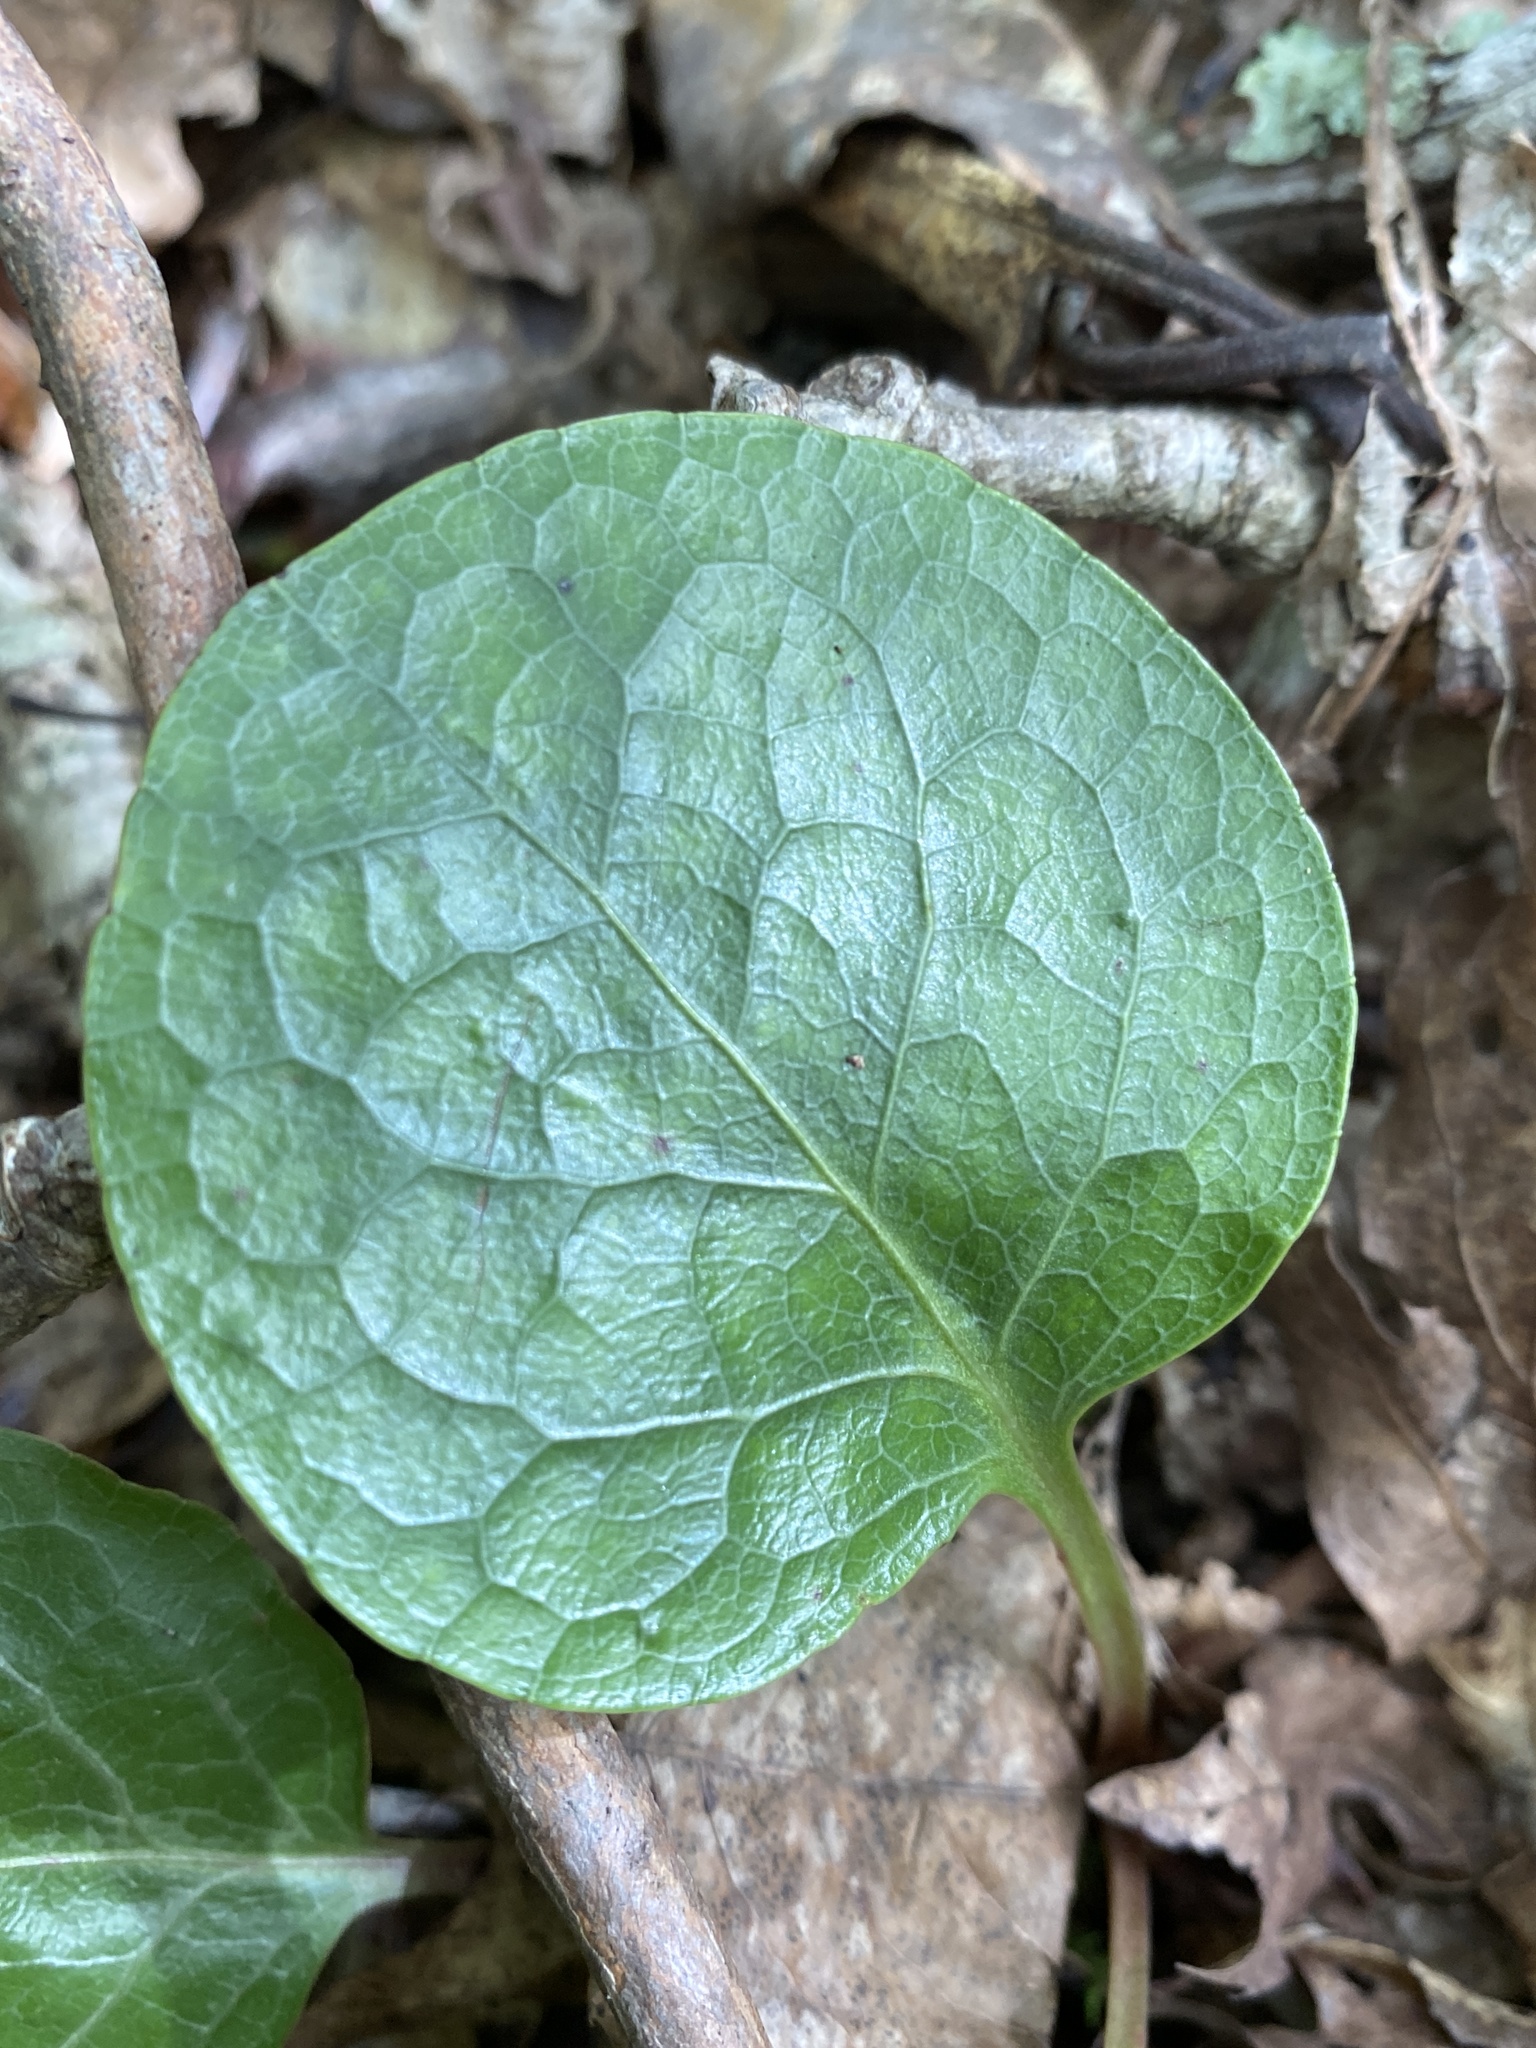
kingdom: Plantae
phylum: Tracheophyta
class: Magnoliopsida
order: Ericales
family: Ericaceae
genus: Pyrola
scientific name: Pyrola americana
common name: American wintergreen
